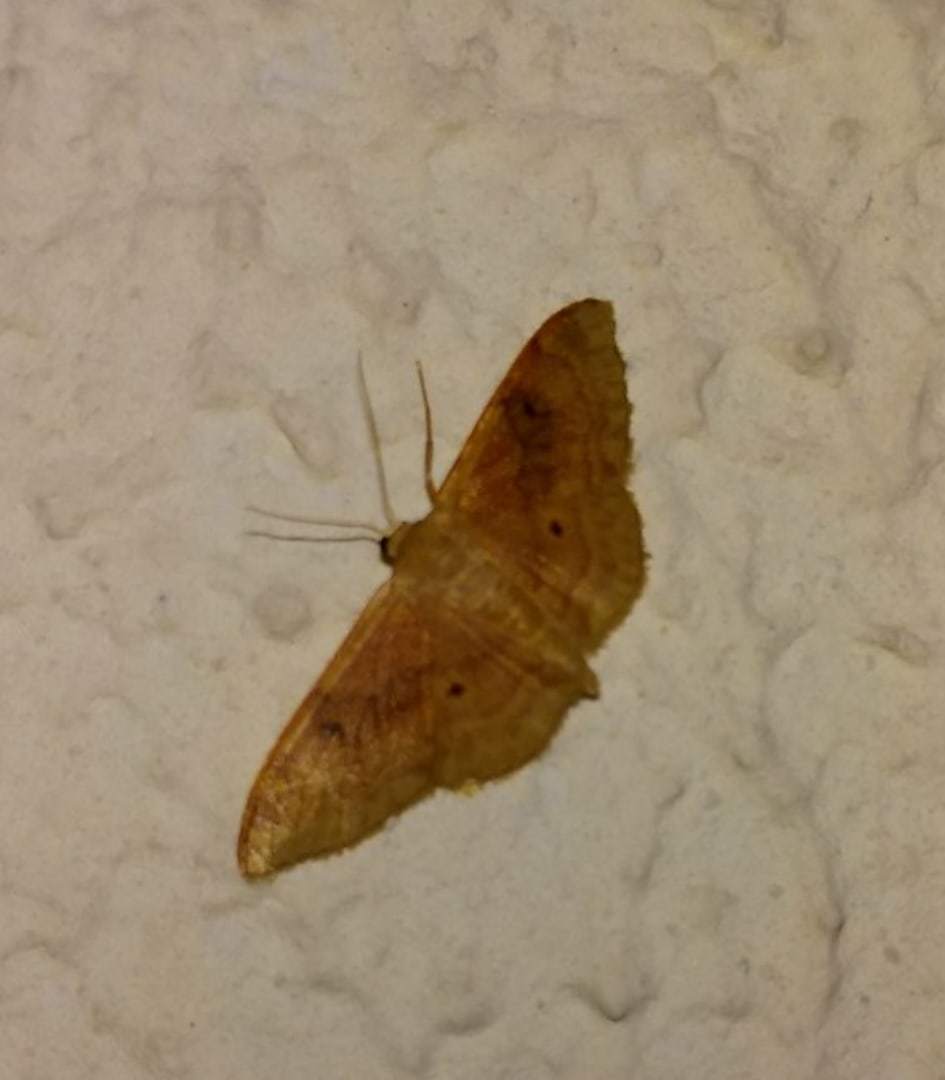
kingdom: Animalia
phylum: Arthropoda
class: Insecta
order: Lepidoptera
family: Geometridae
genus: Idaea
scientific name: Idaea bilinearia
